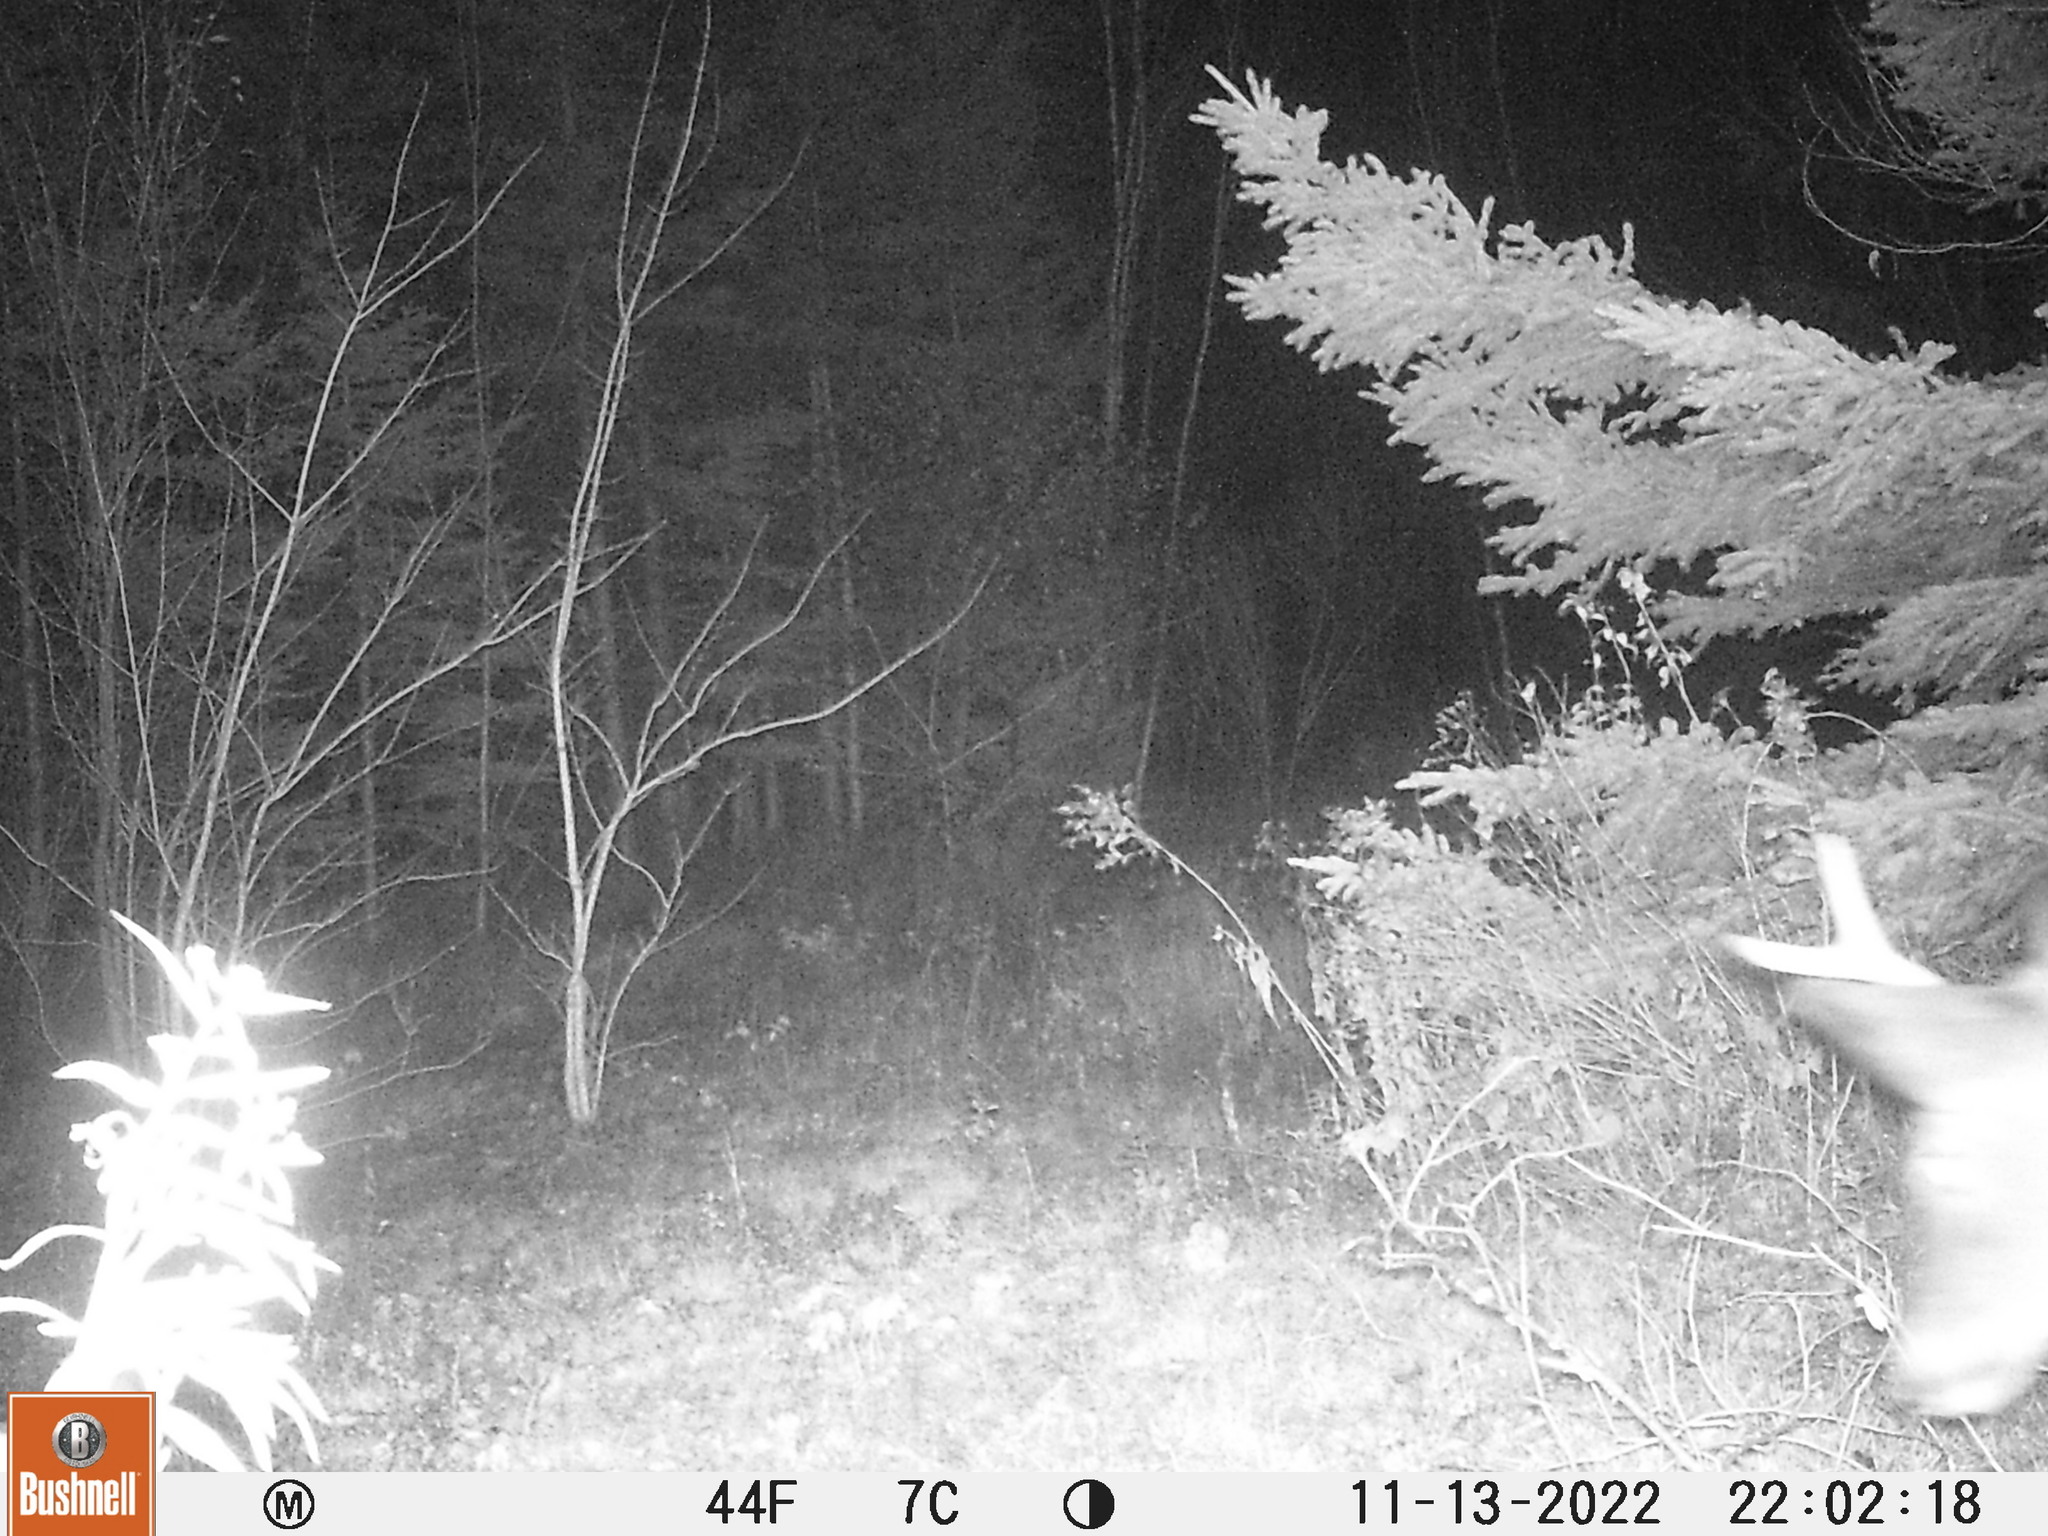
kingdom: Animalia
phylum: Chordata
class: Mammalia
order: Artiodactyla
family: Cervidae
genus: Odocoileus
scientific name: Odocoileus virginianus
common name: White-tailed deer
